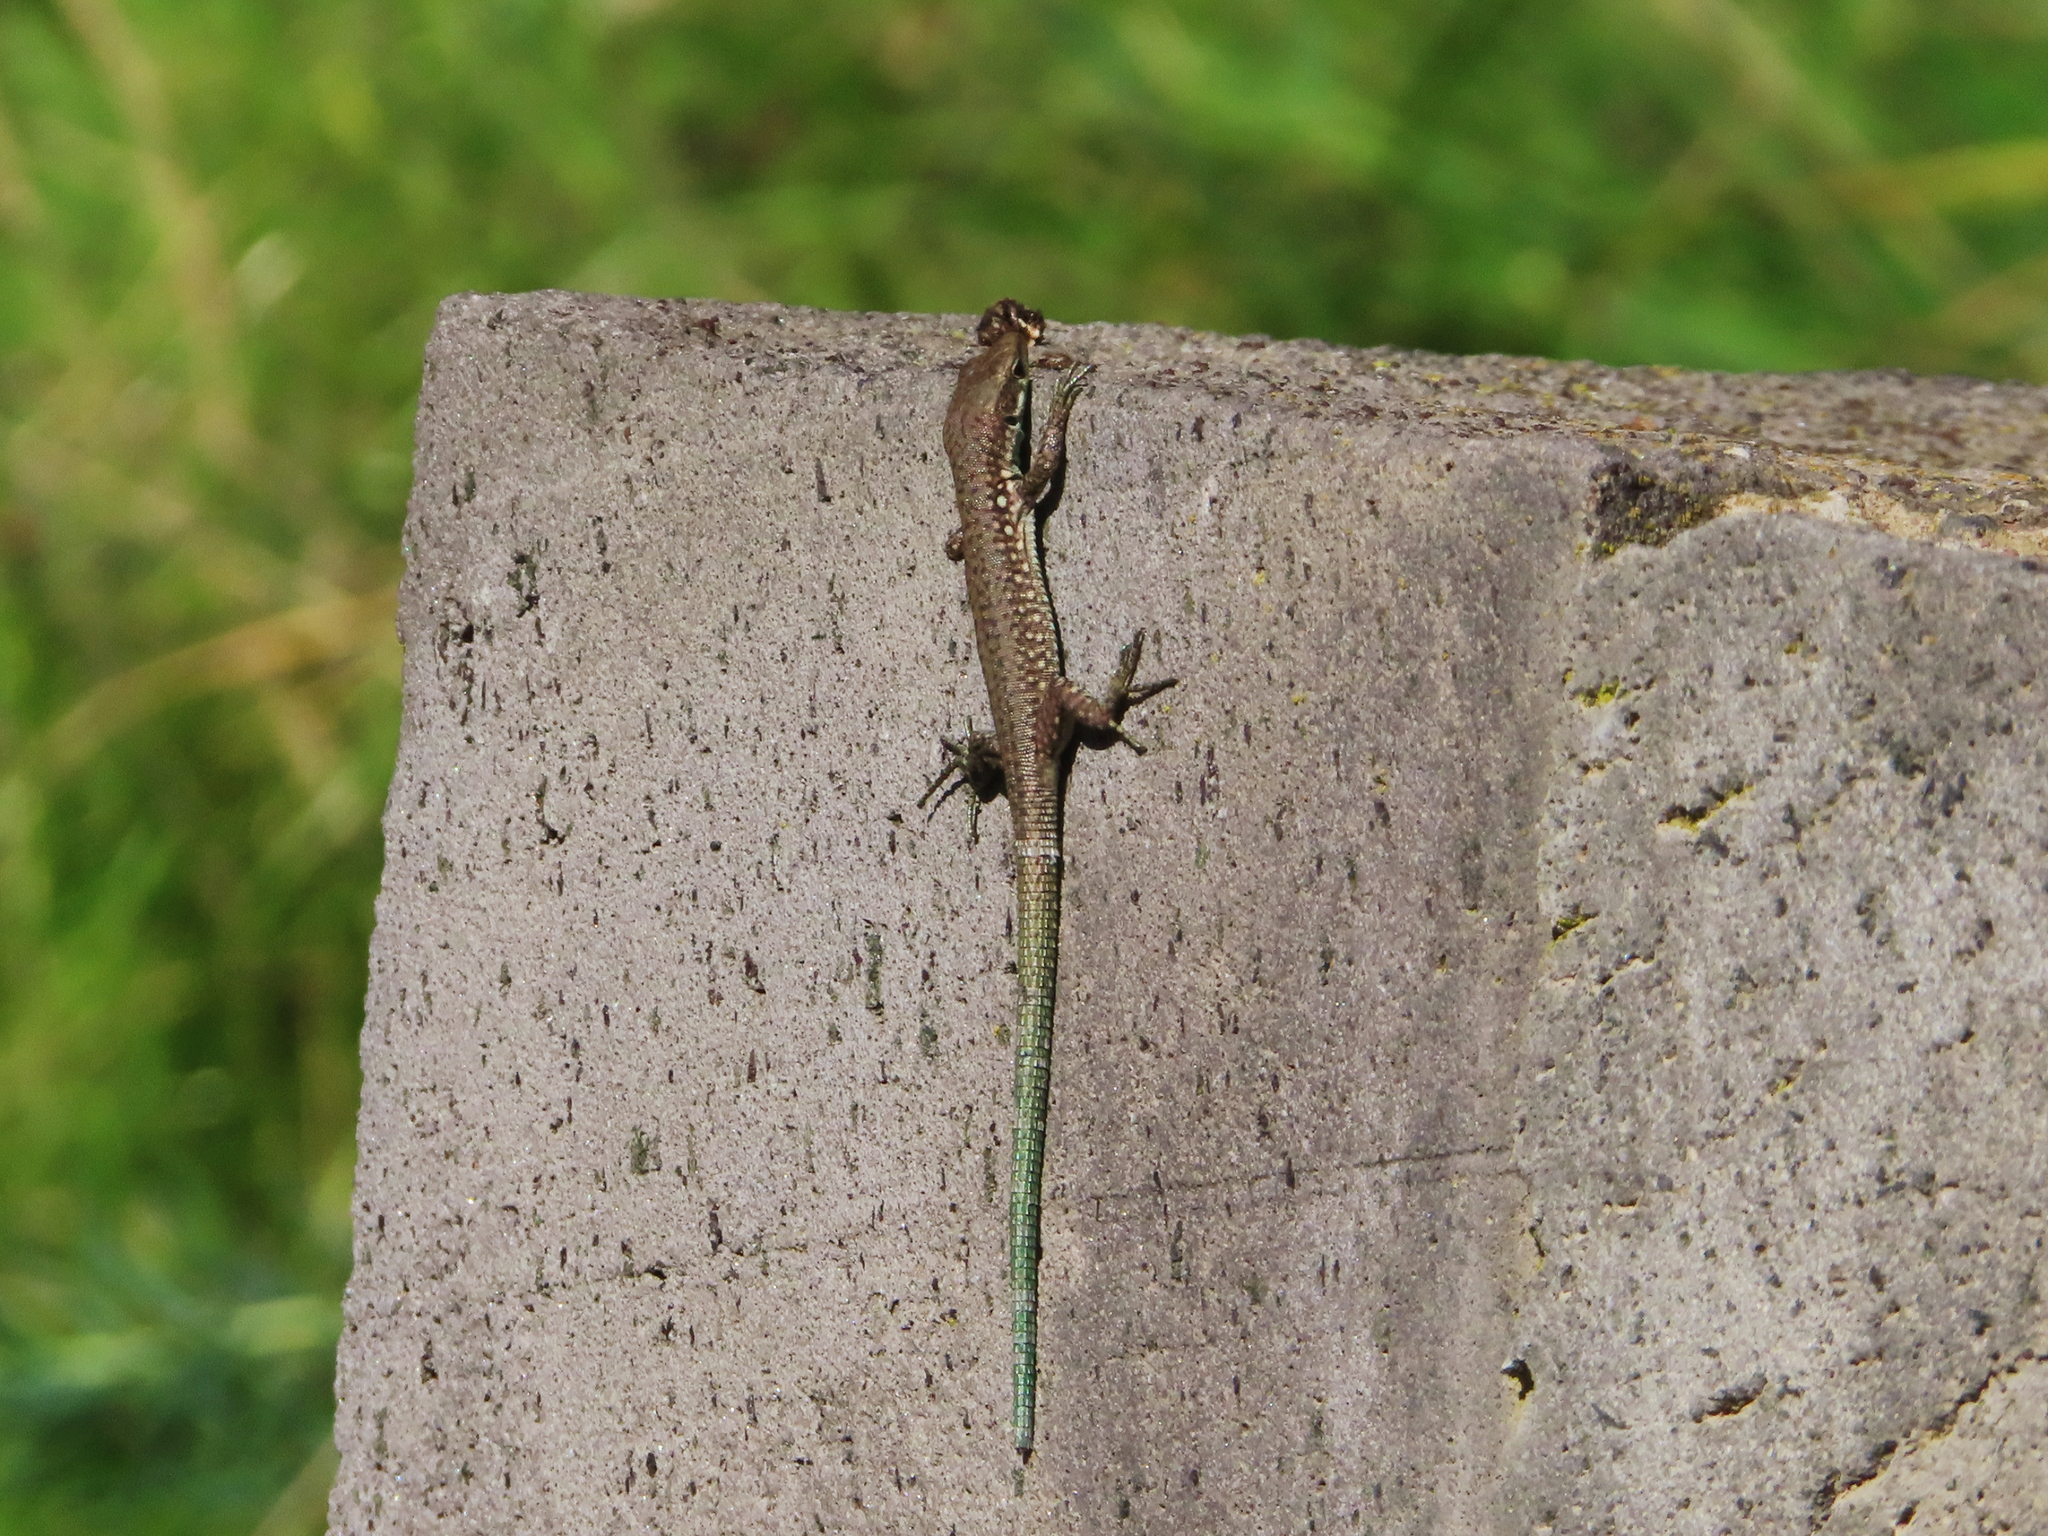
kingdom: Animalia
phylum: Chordata
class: Squamata
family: Lacertidae
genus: Darevskia
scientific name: Darevskia raddei
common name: Radde's lizard
